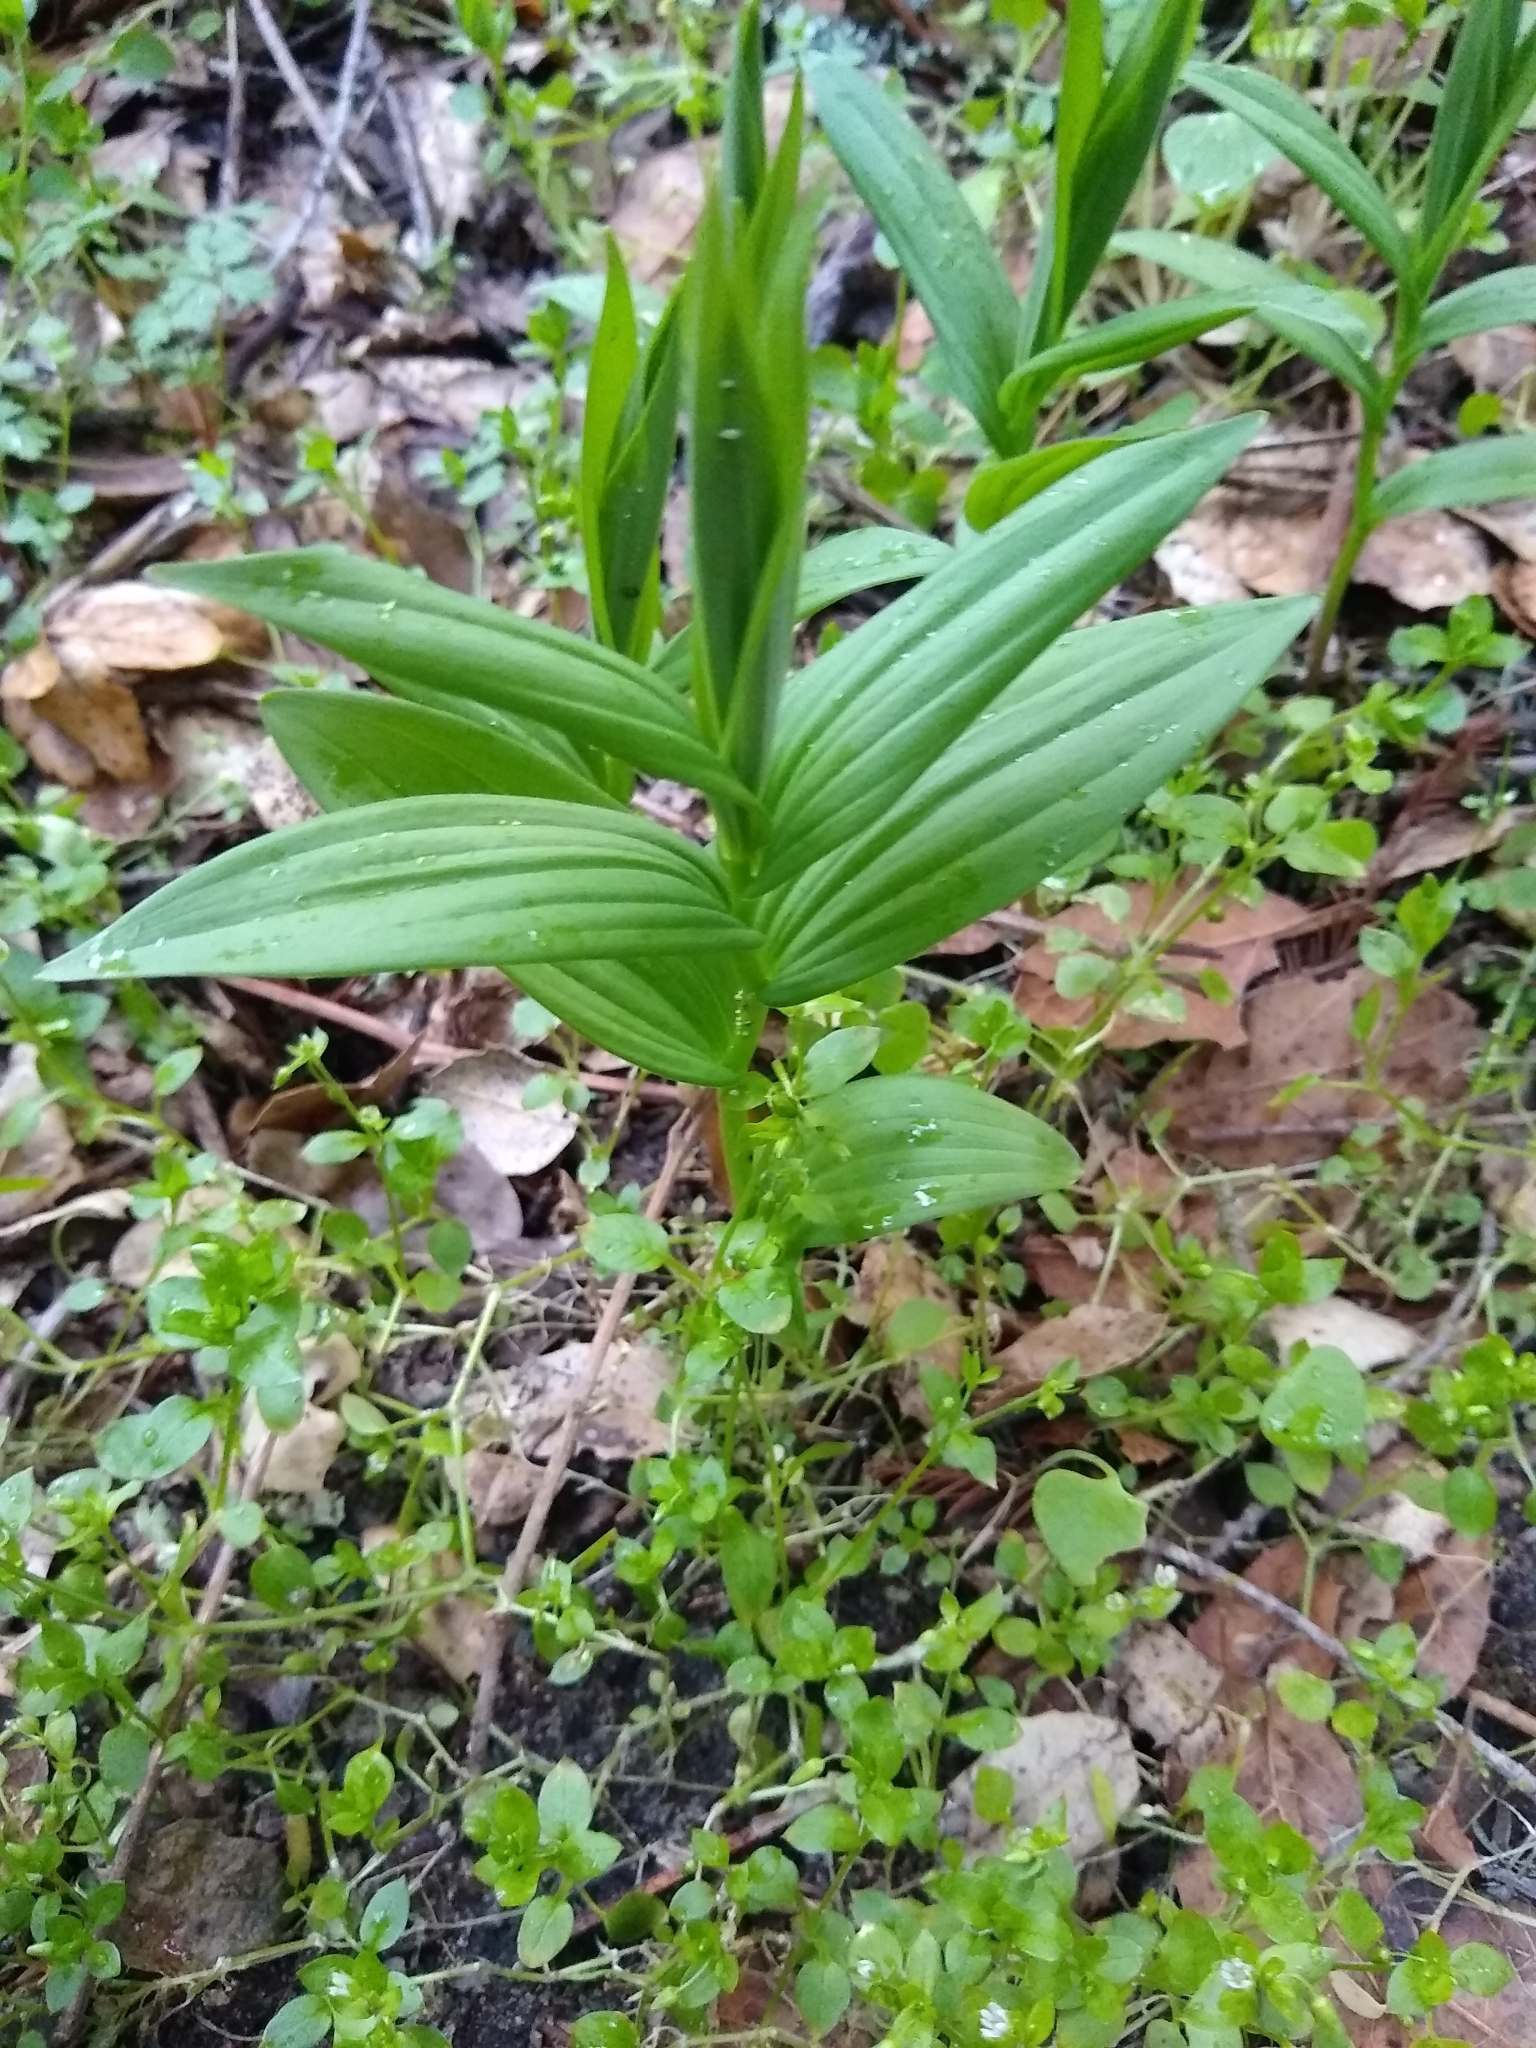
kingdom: Plantae
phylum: Tracheophyta
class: Liliopsida
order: Asparagales
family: Asparagaceae
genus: Maianthemum
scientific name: Maianthemum stellatum
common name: Little false solomon's seal
